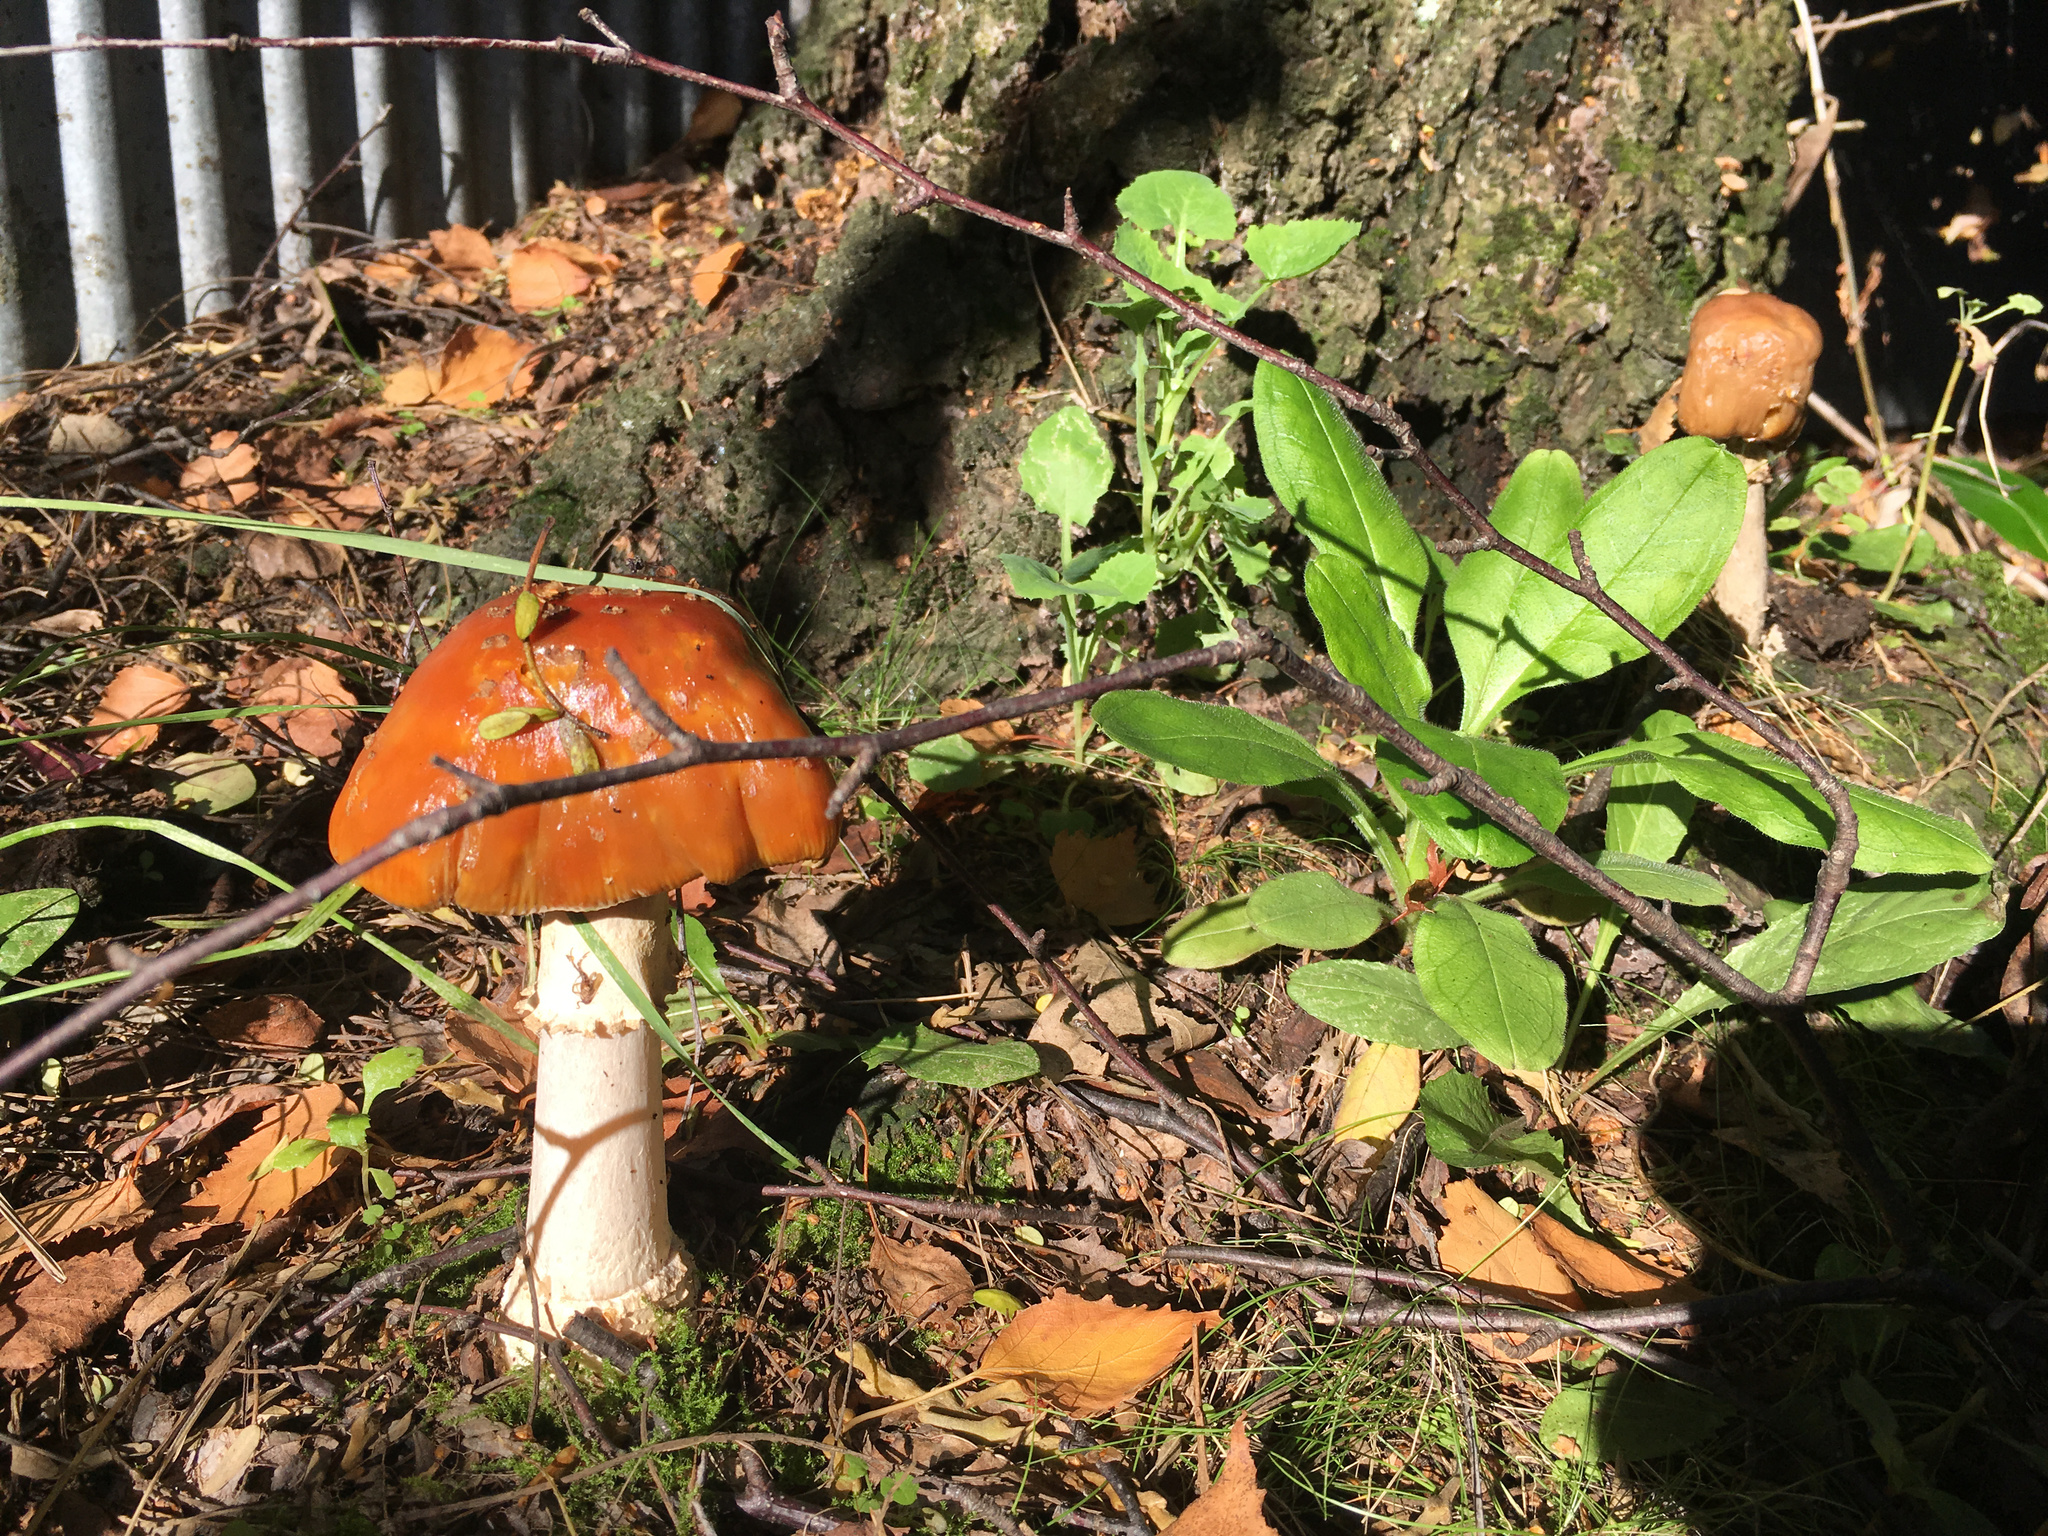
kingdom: Fungi
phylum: Basidiomycota
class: Agaricomycetes
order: Agaricales
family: Amanitaceae
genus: Amanita
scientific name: Amanita muscaria
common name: Fly agaric
